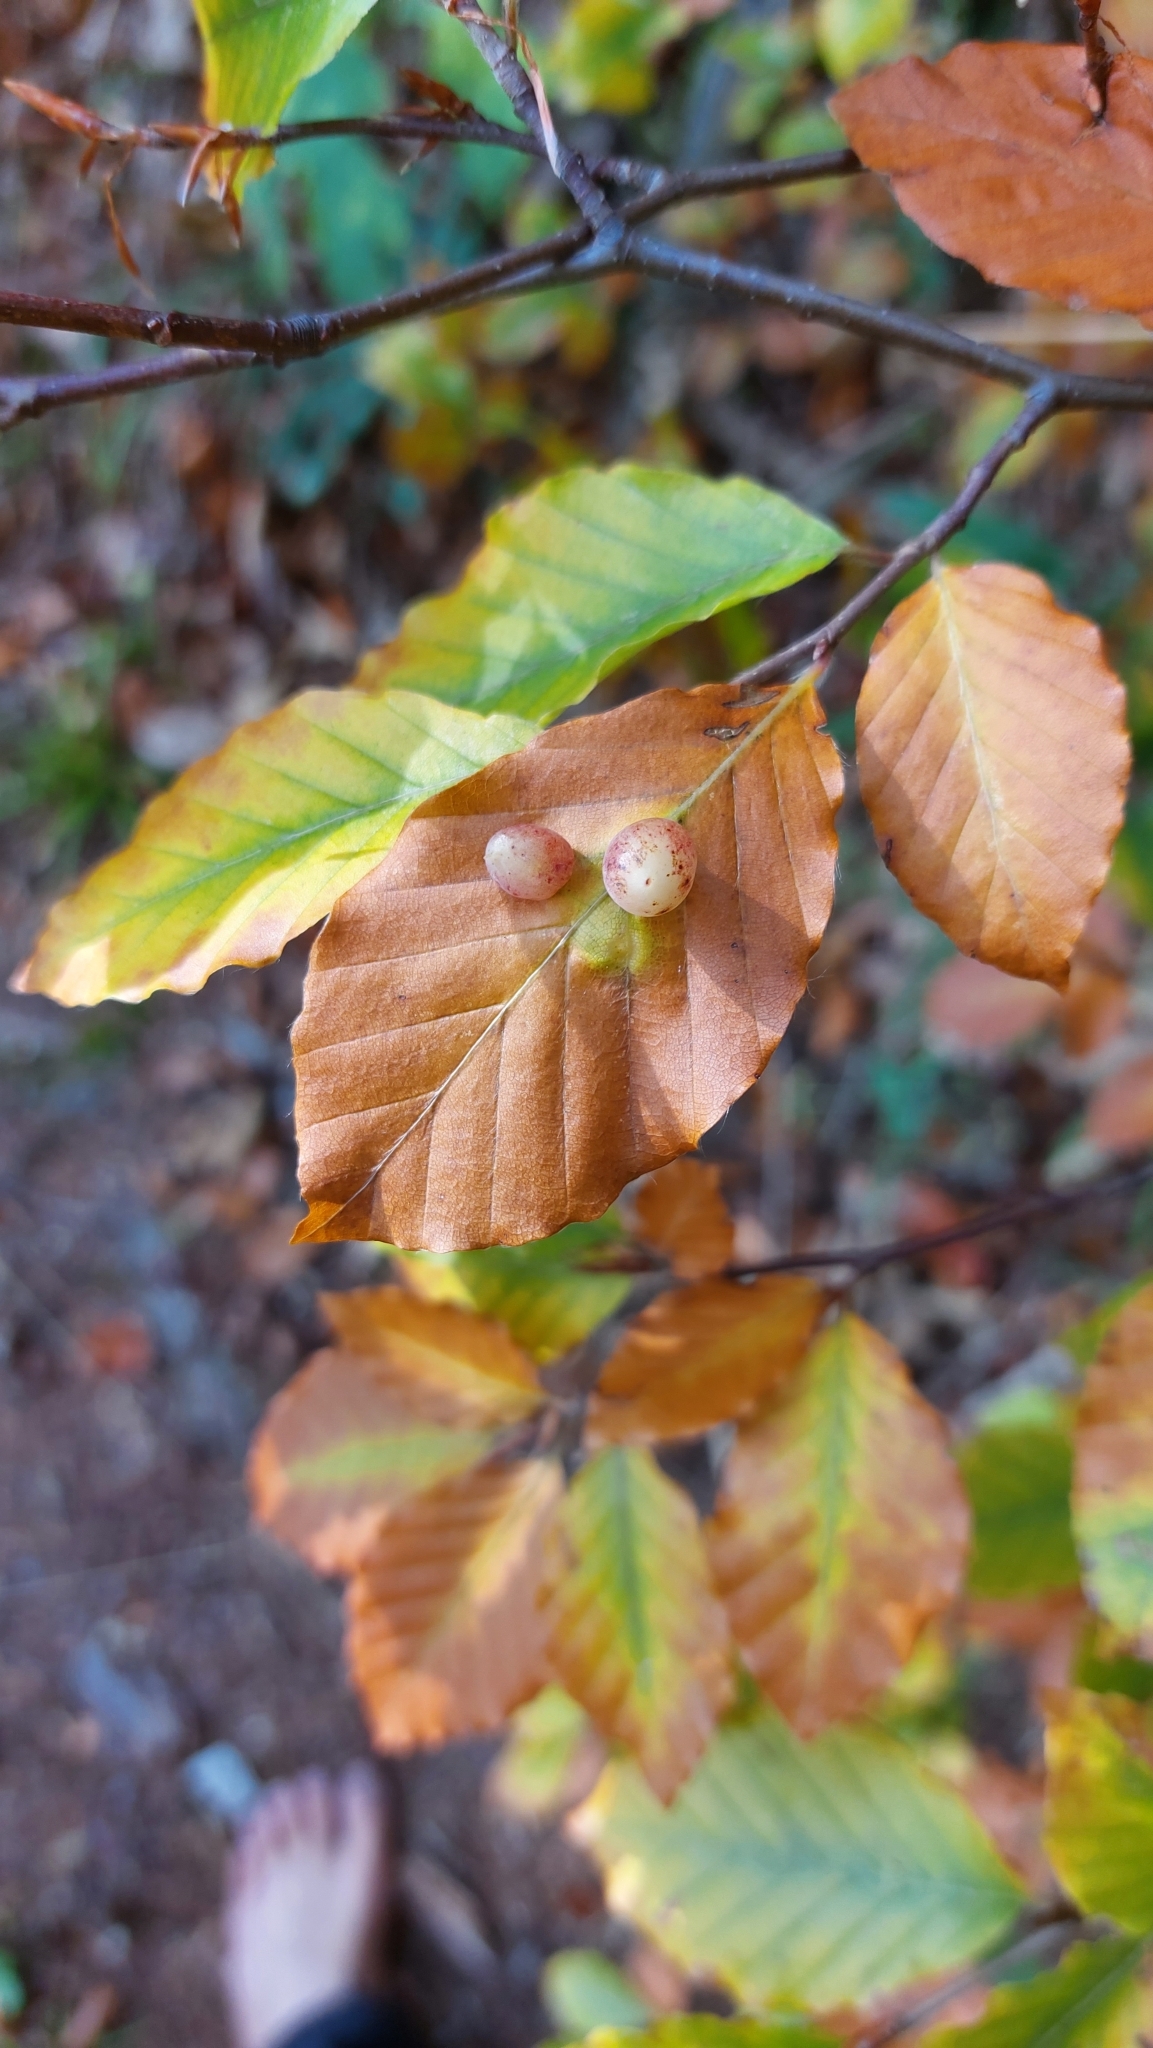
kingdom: Animalia
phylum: Arthropoda
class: Insecta
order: Diptera
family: Cecidomyiidae
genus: Mikiola
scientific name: Mikiola fagi
